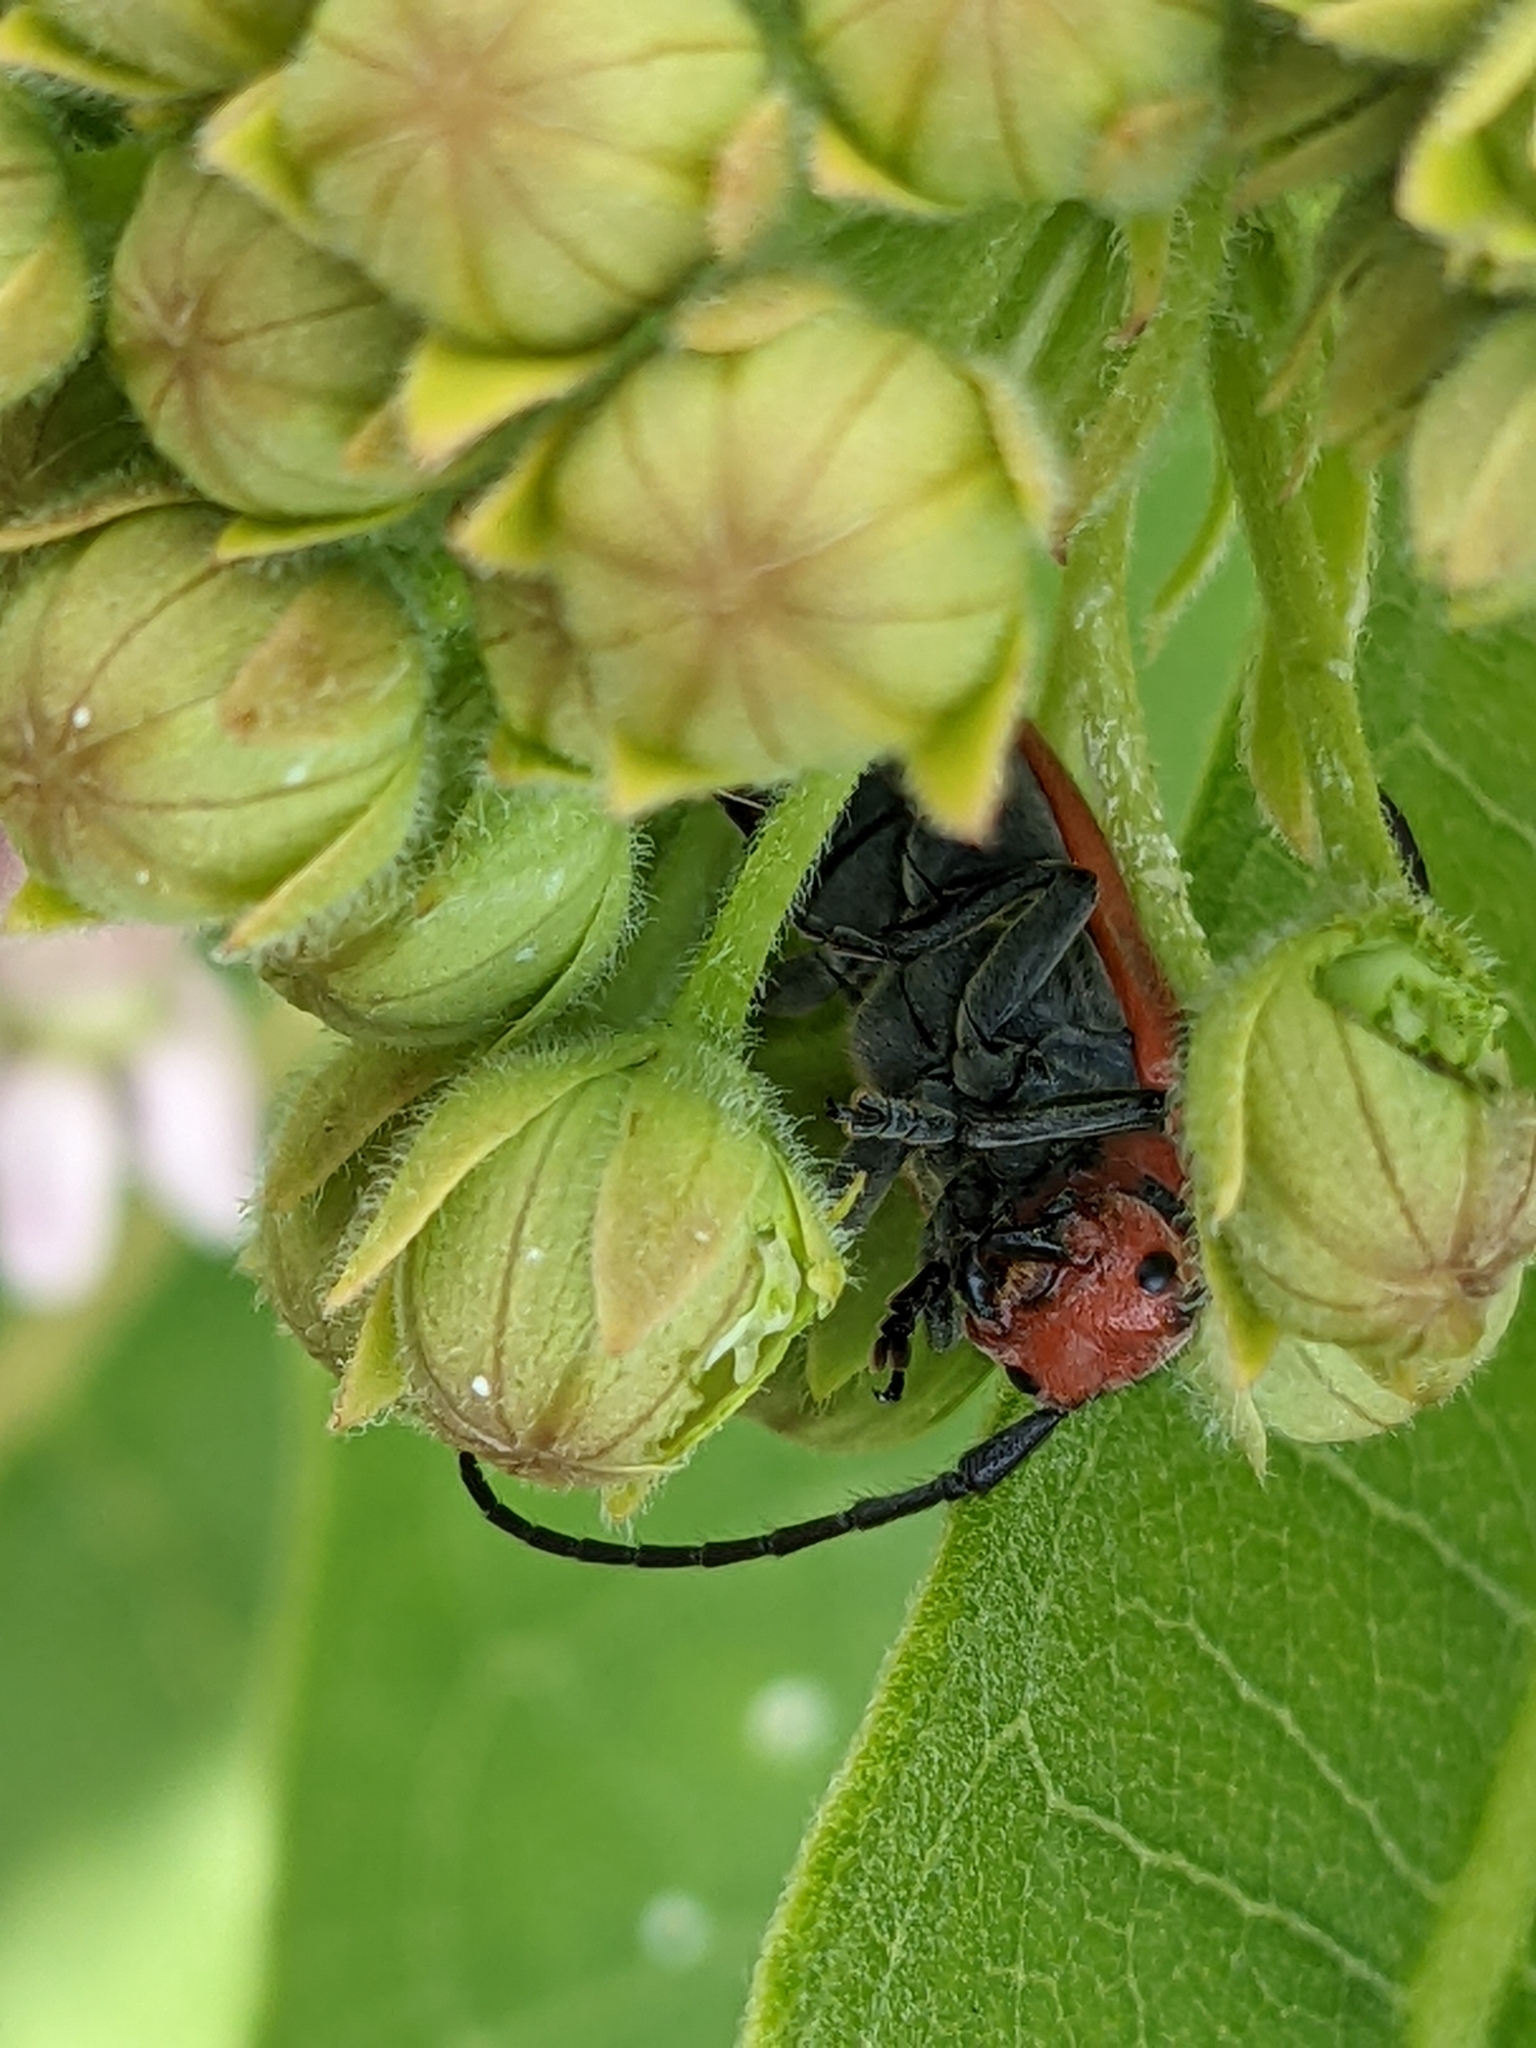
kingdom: Animalia
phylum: Arthropoda
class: Insecta
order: Coleoptera
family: Cerambycidae
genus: Tetraopes
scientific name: Tetraopes
